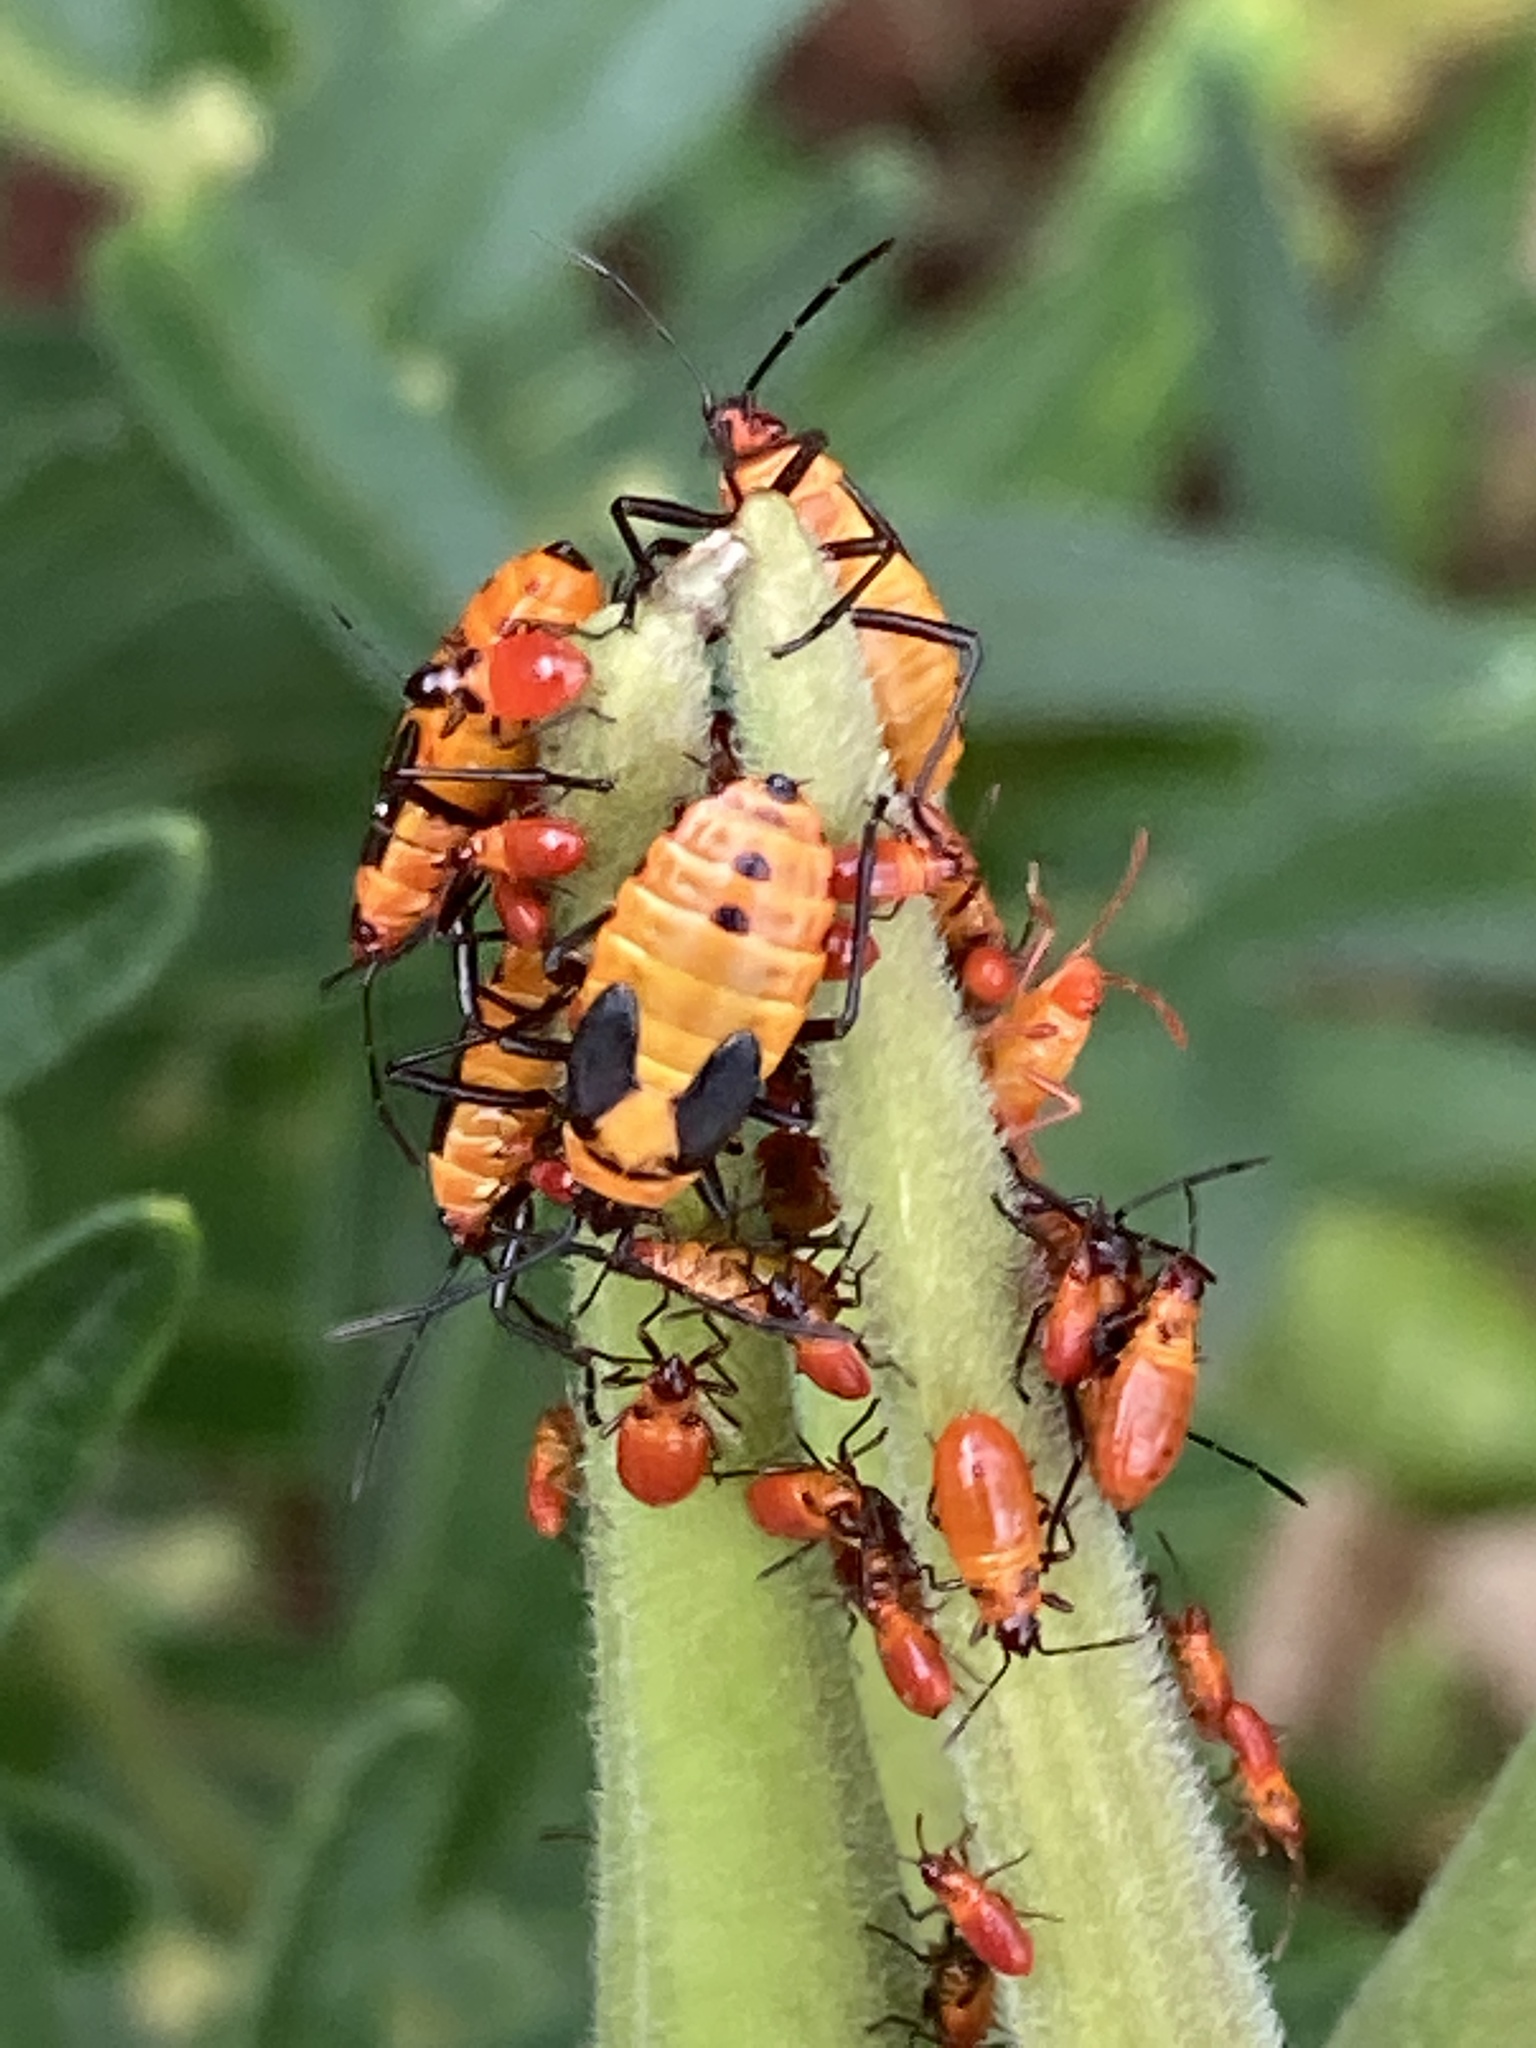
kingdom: Animalia
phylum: Arthropoda
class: Insecta
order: Hemiptera
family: Lygaeidae
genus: Oncopeltus
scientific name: Oncopeltus fasciatus
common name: Large milkweed bug
